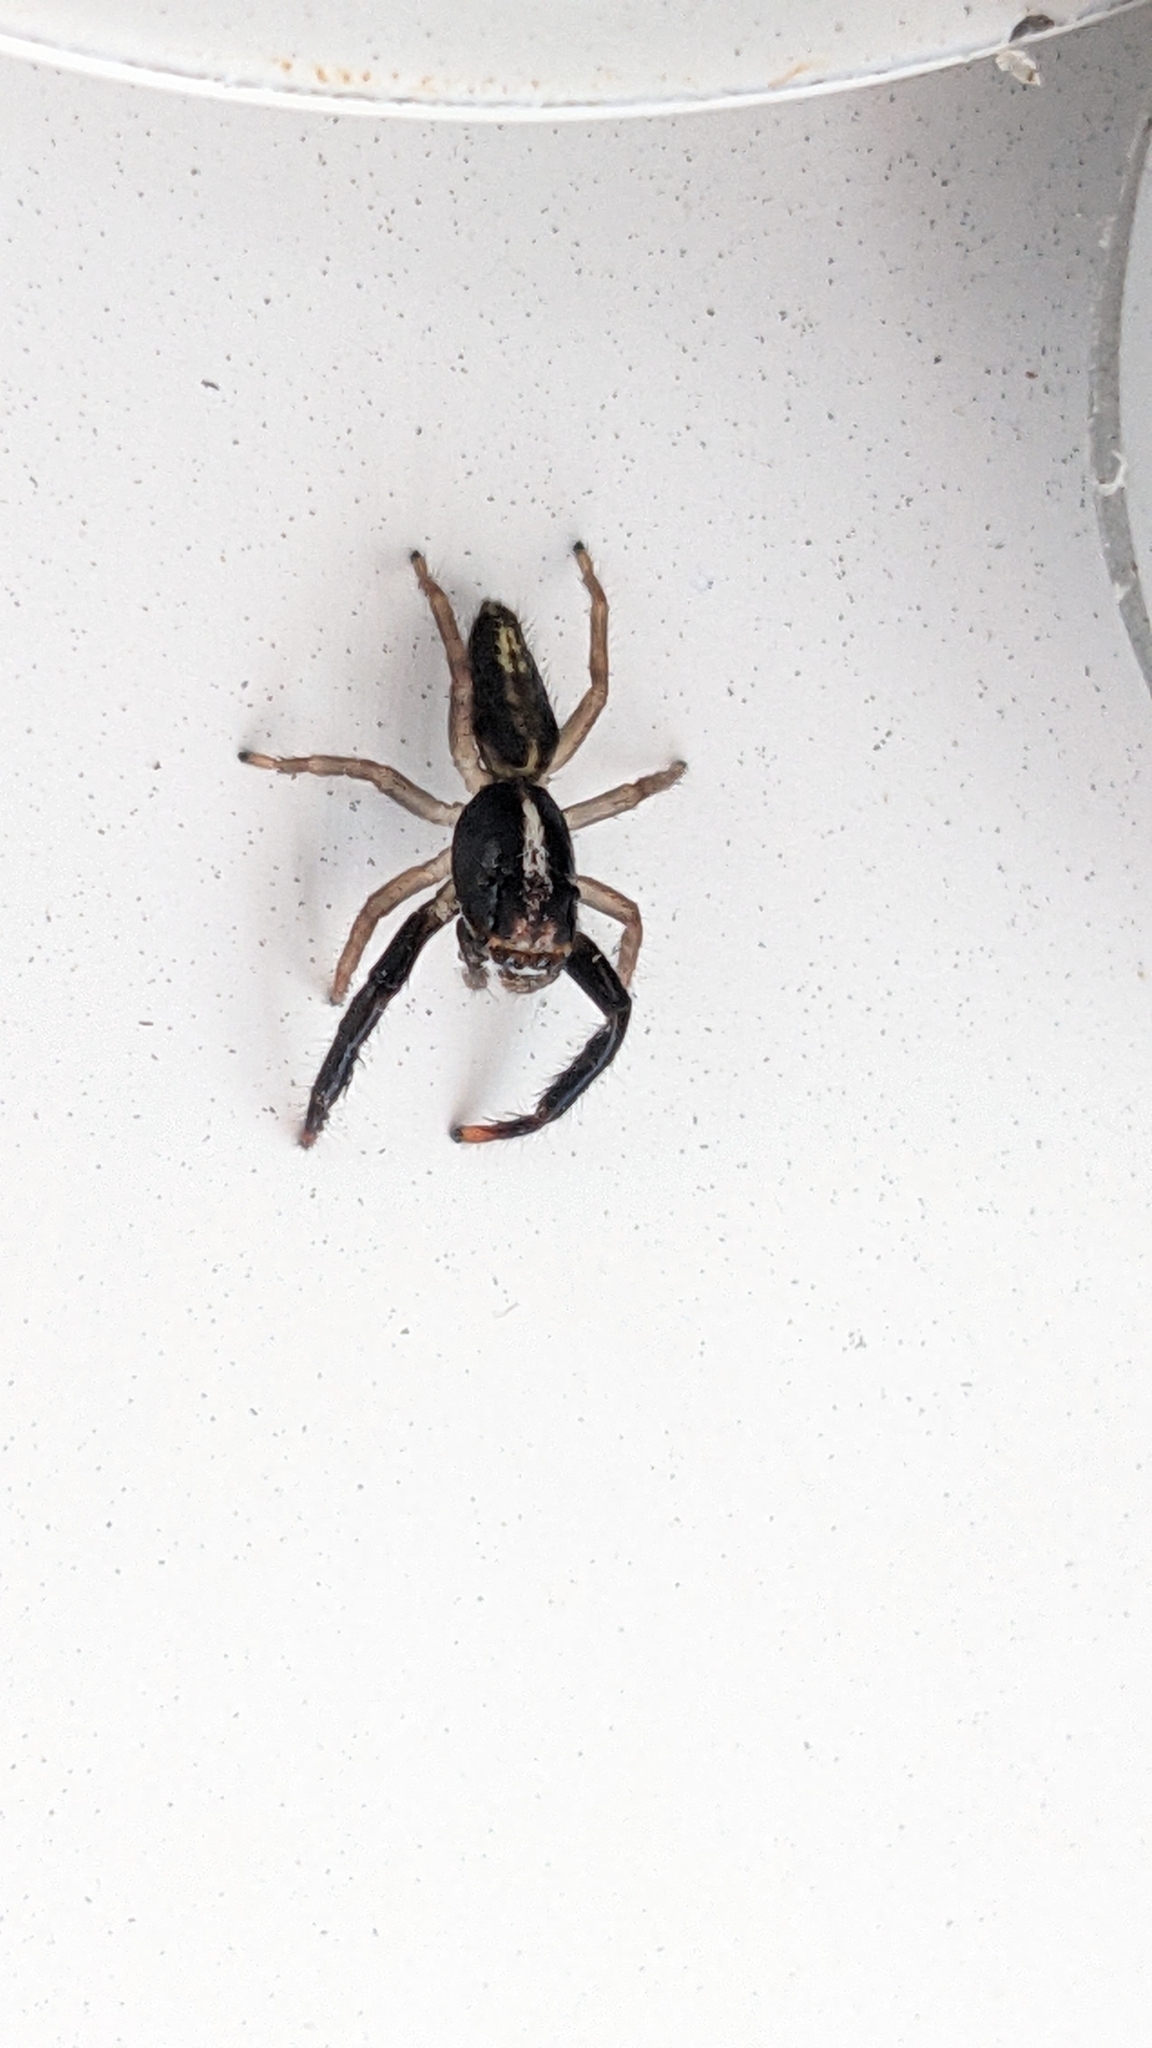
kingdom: Animalia
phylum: Arthropoda
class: Arachnida
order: Araneae
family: Salticidae
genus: Trite
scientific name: Trite planiceps
